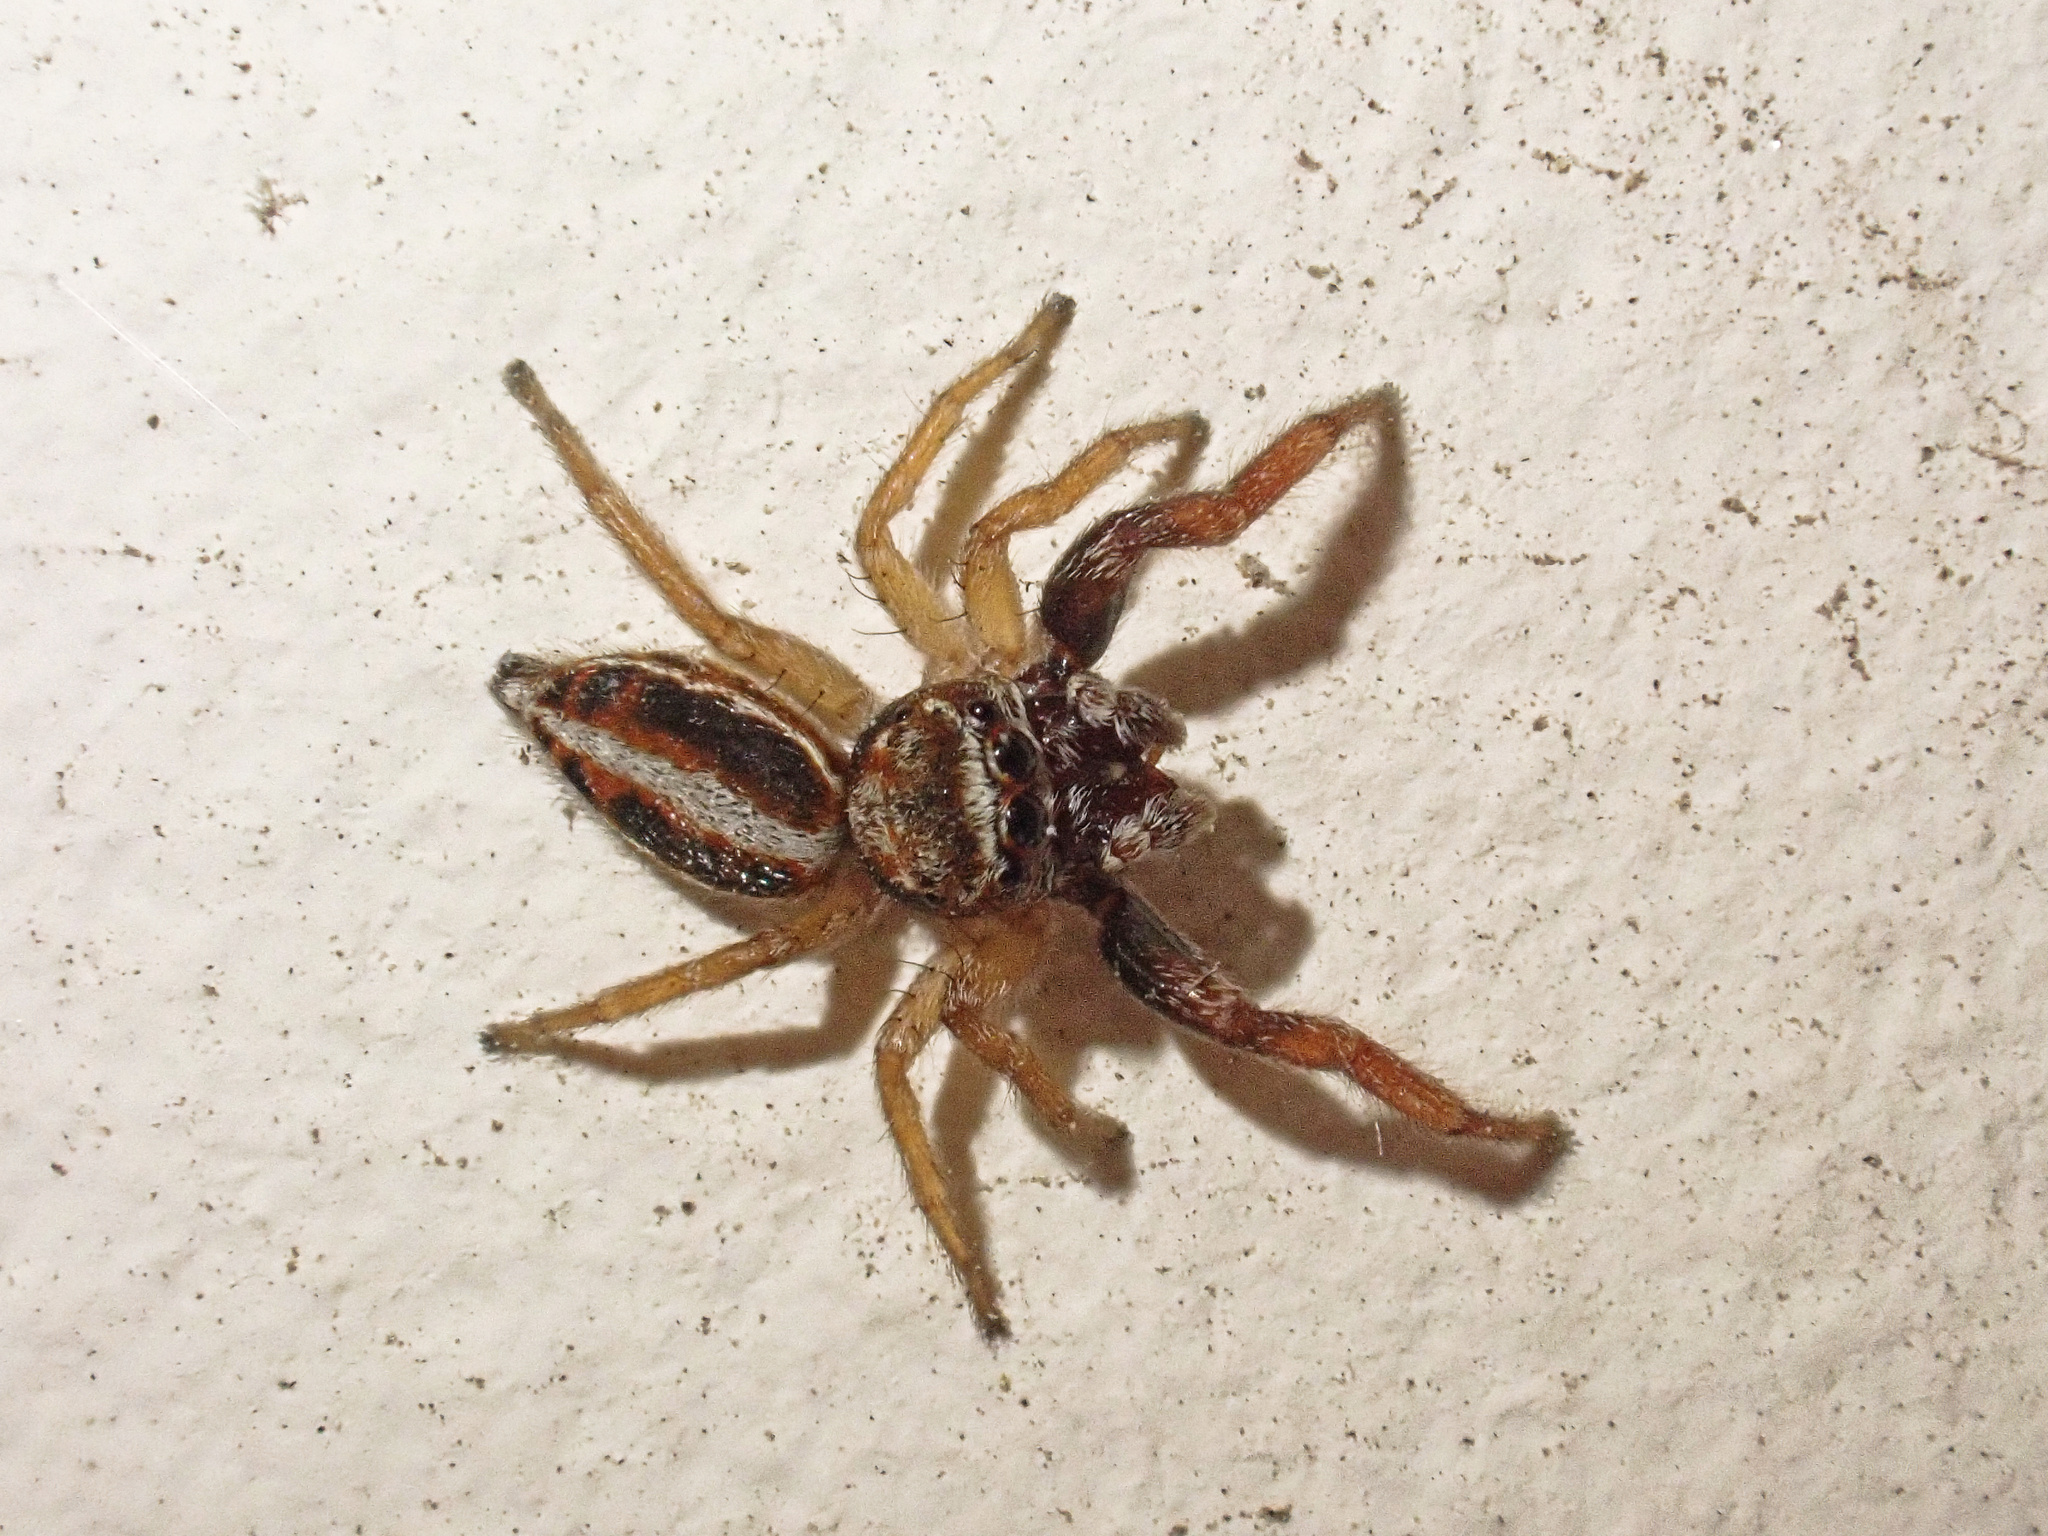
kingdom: Animalia
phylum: Arthropoda
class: Arachnida
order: Araneae
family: Salticidae
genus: Icius
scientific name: Icius subinermis
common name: Jumping spider
